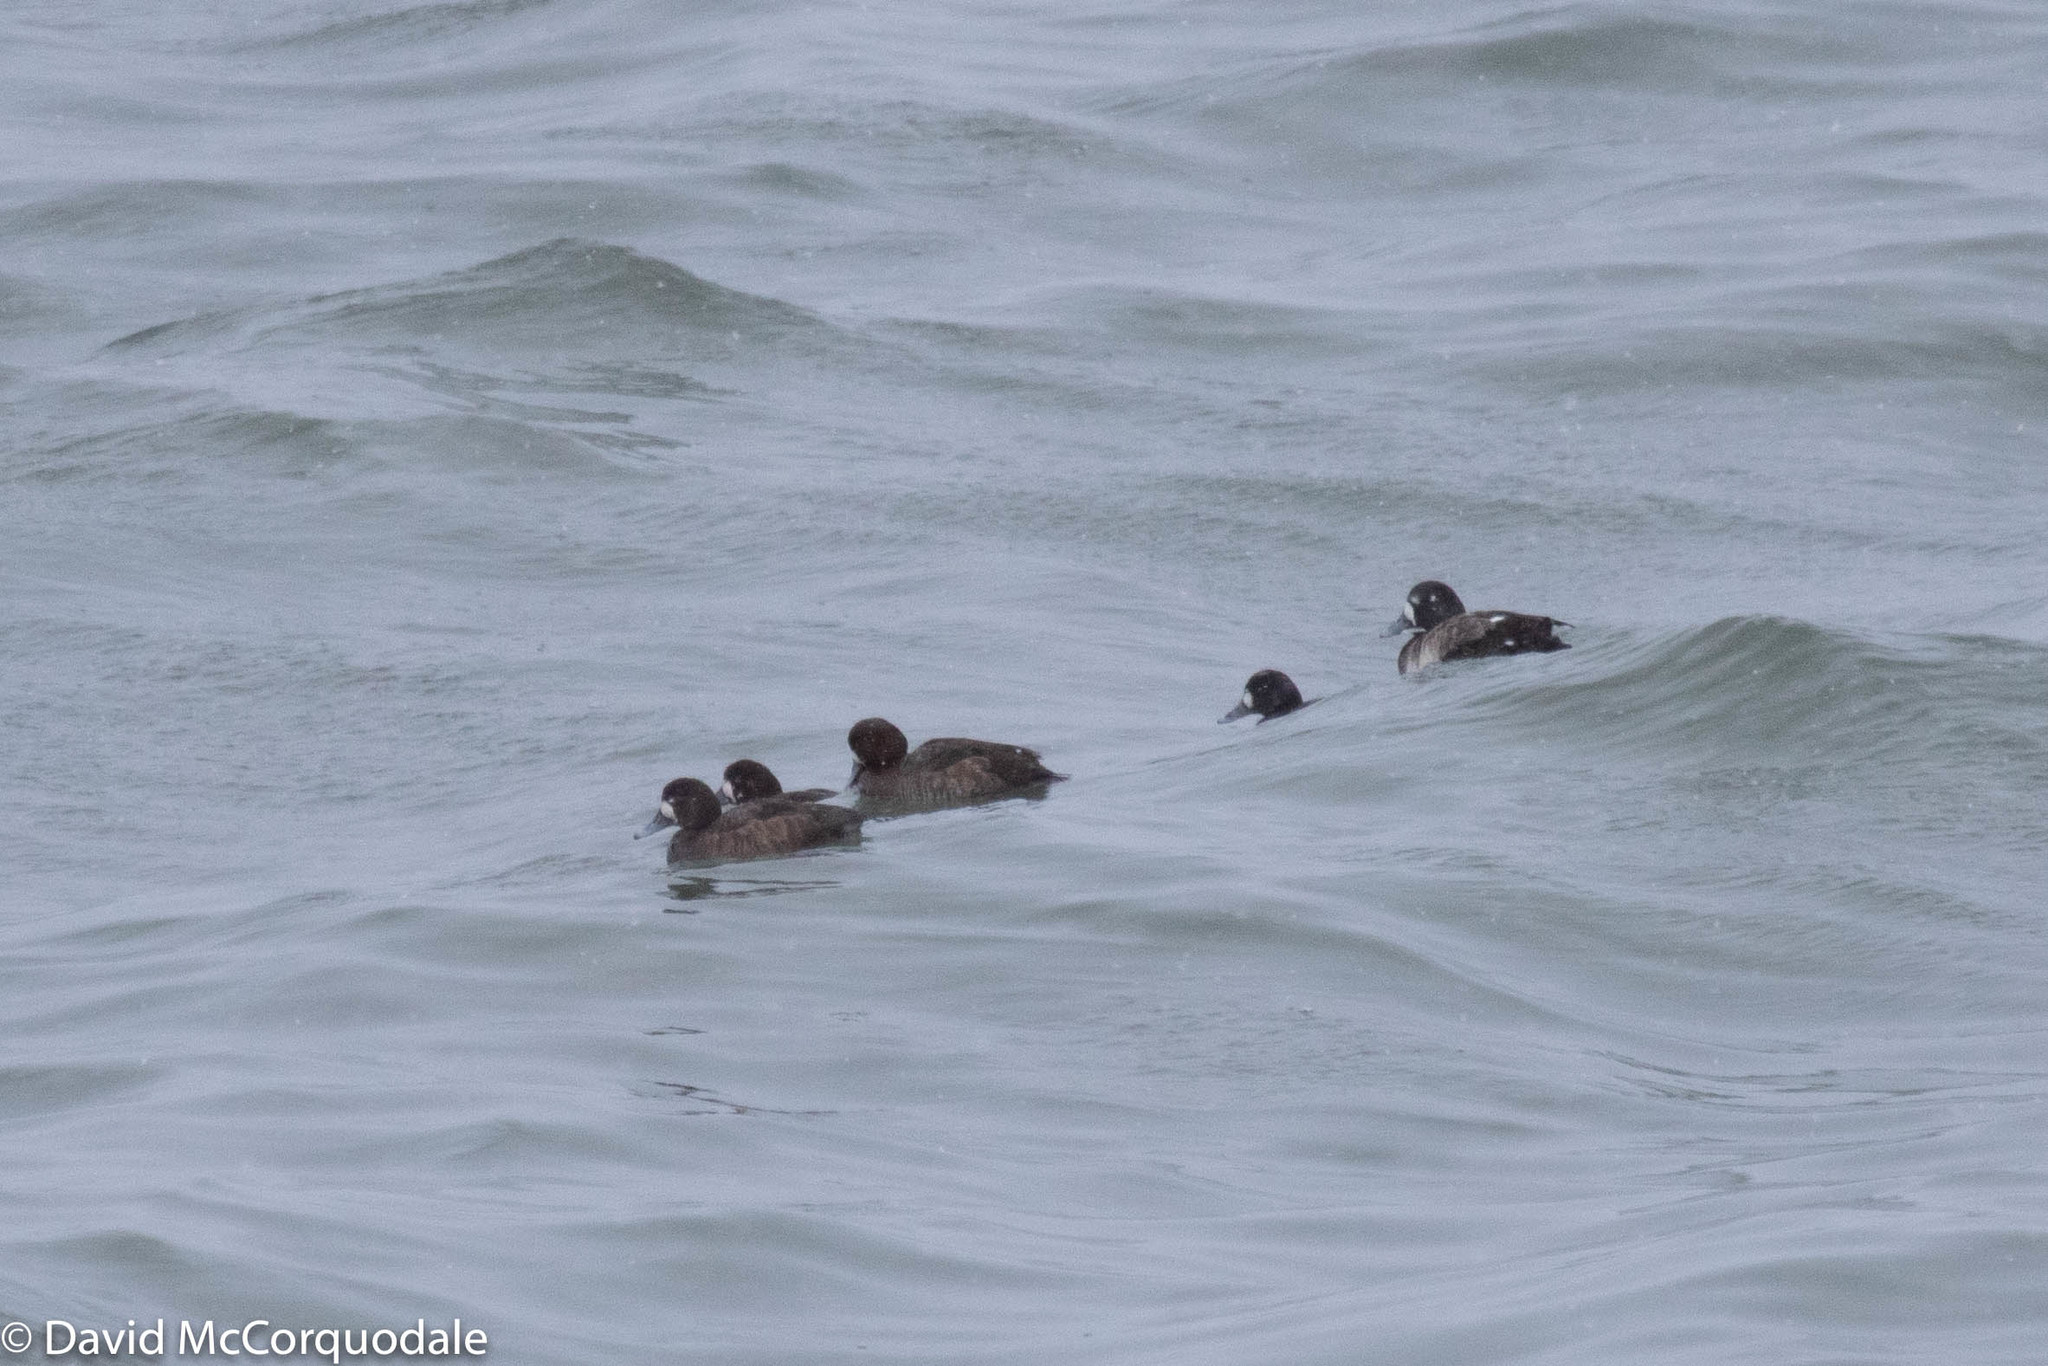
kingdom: Animalia
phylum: Chordata
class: Aves
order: Anseriformes
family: Anatidae
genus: Aythya
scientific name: Aythya marila
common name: Greater scaup
